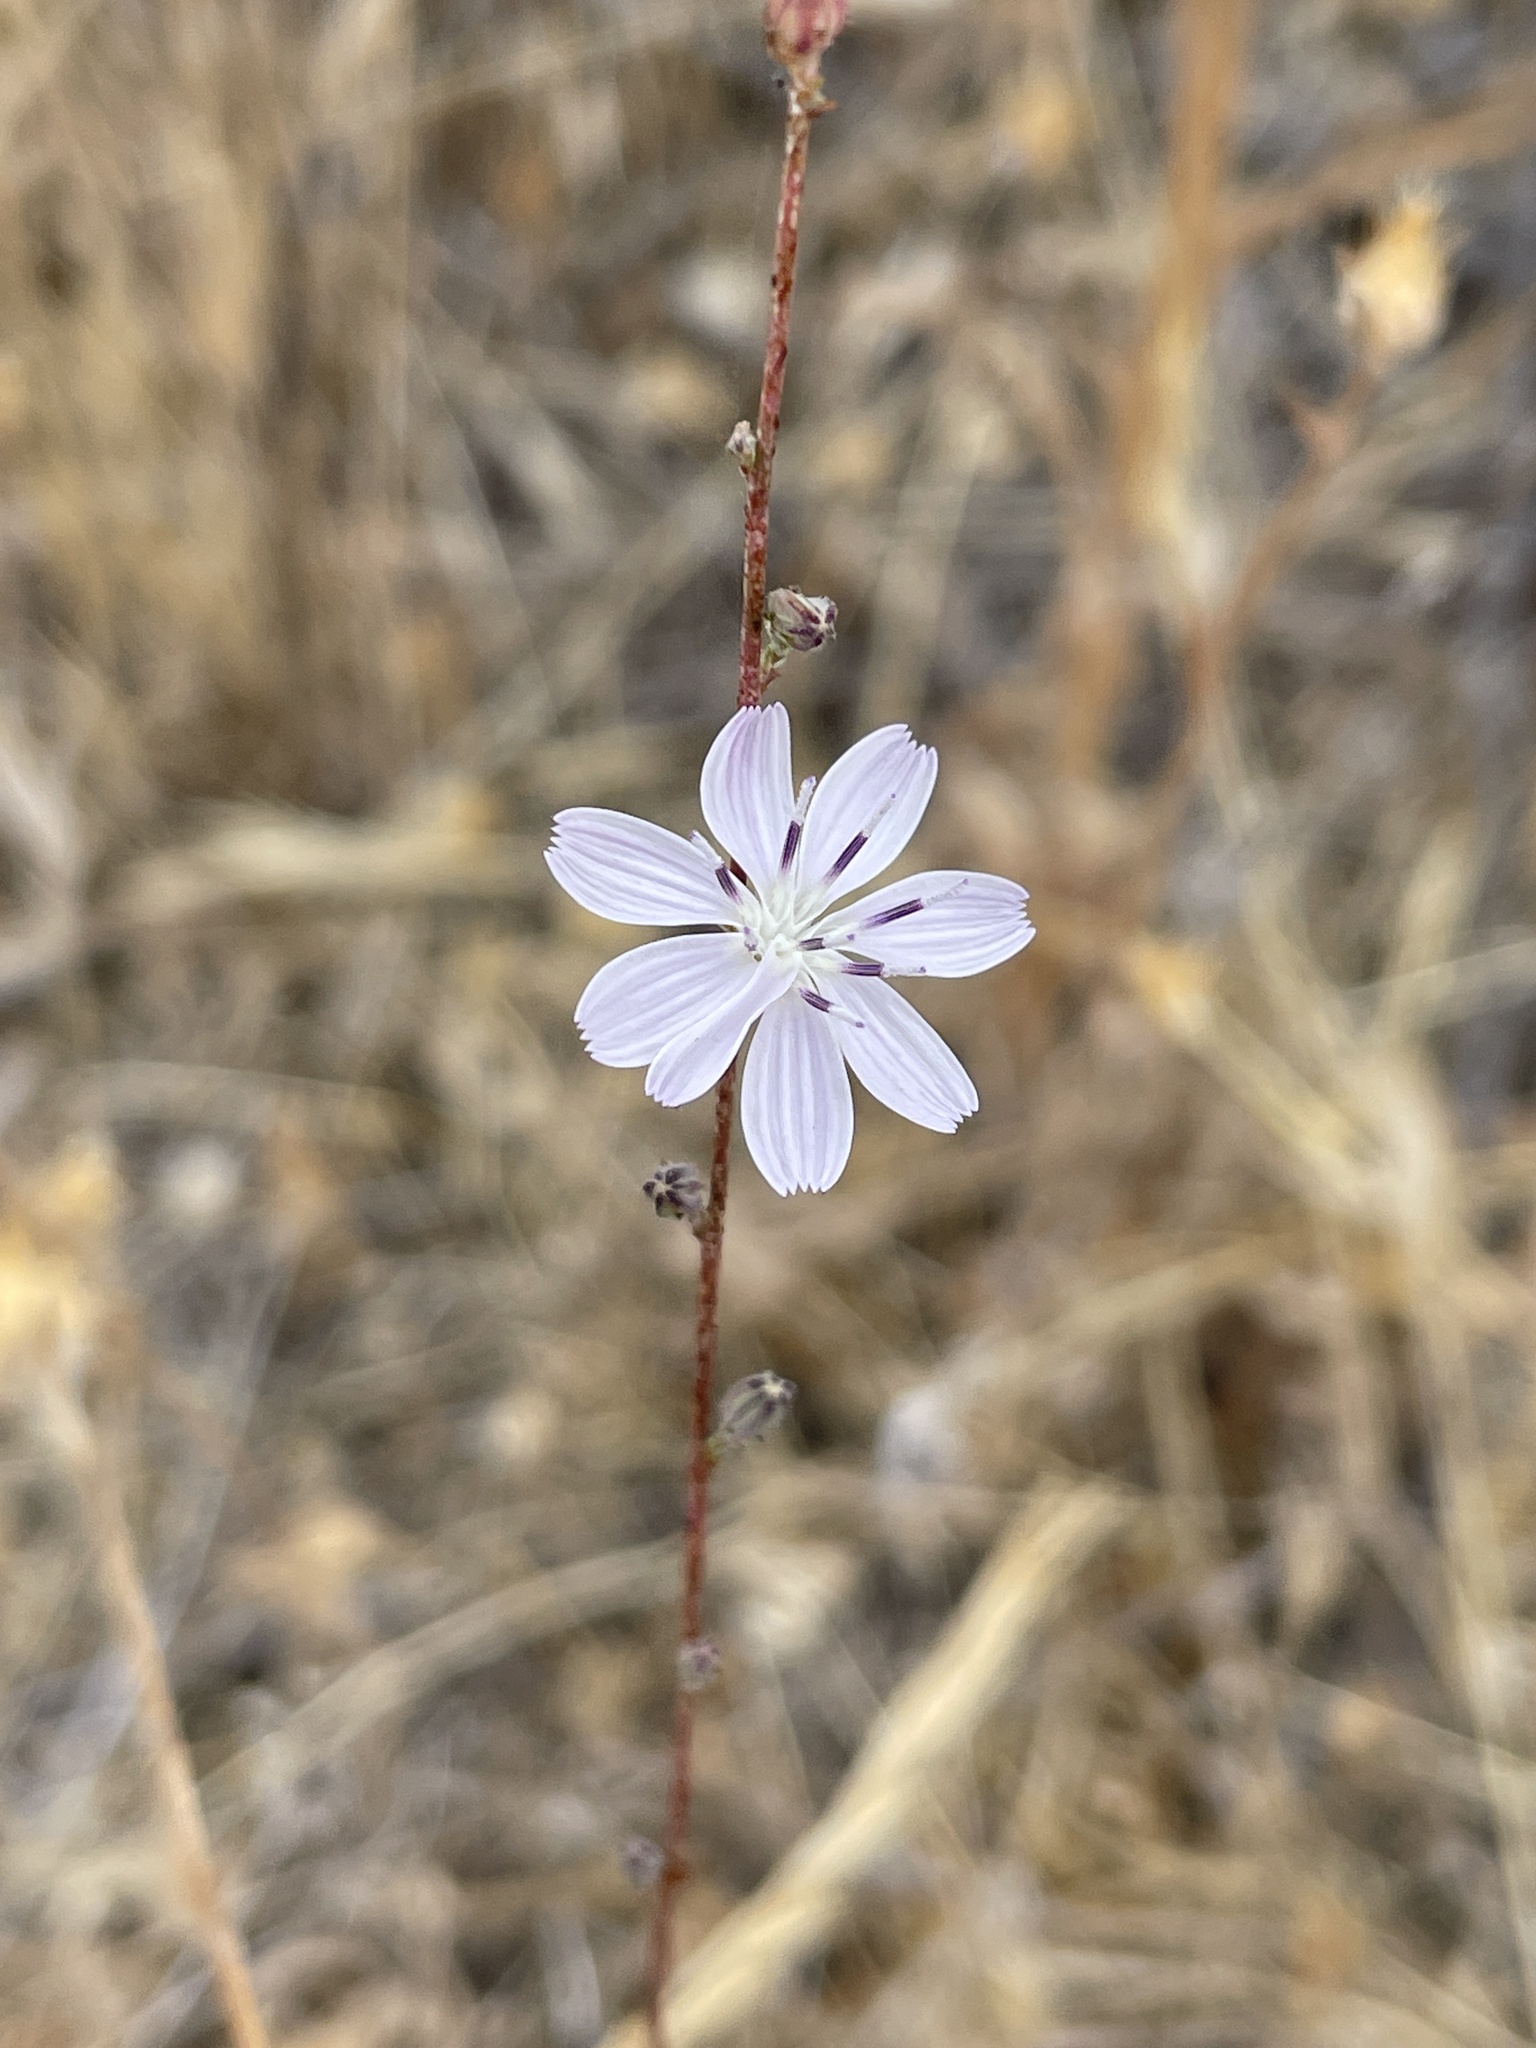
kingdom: Plantae
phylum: Tracheophyta
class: Magnoliopsida
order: Asterales
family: Asteraceae
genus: Stephanomeria
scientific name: Stephanomeria virgata
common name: Virgate wirelettuce
